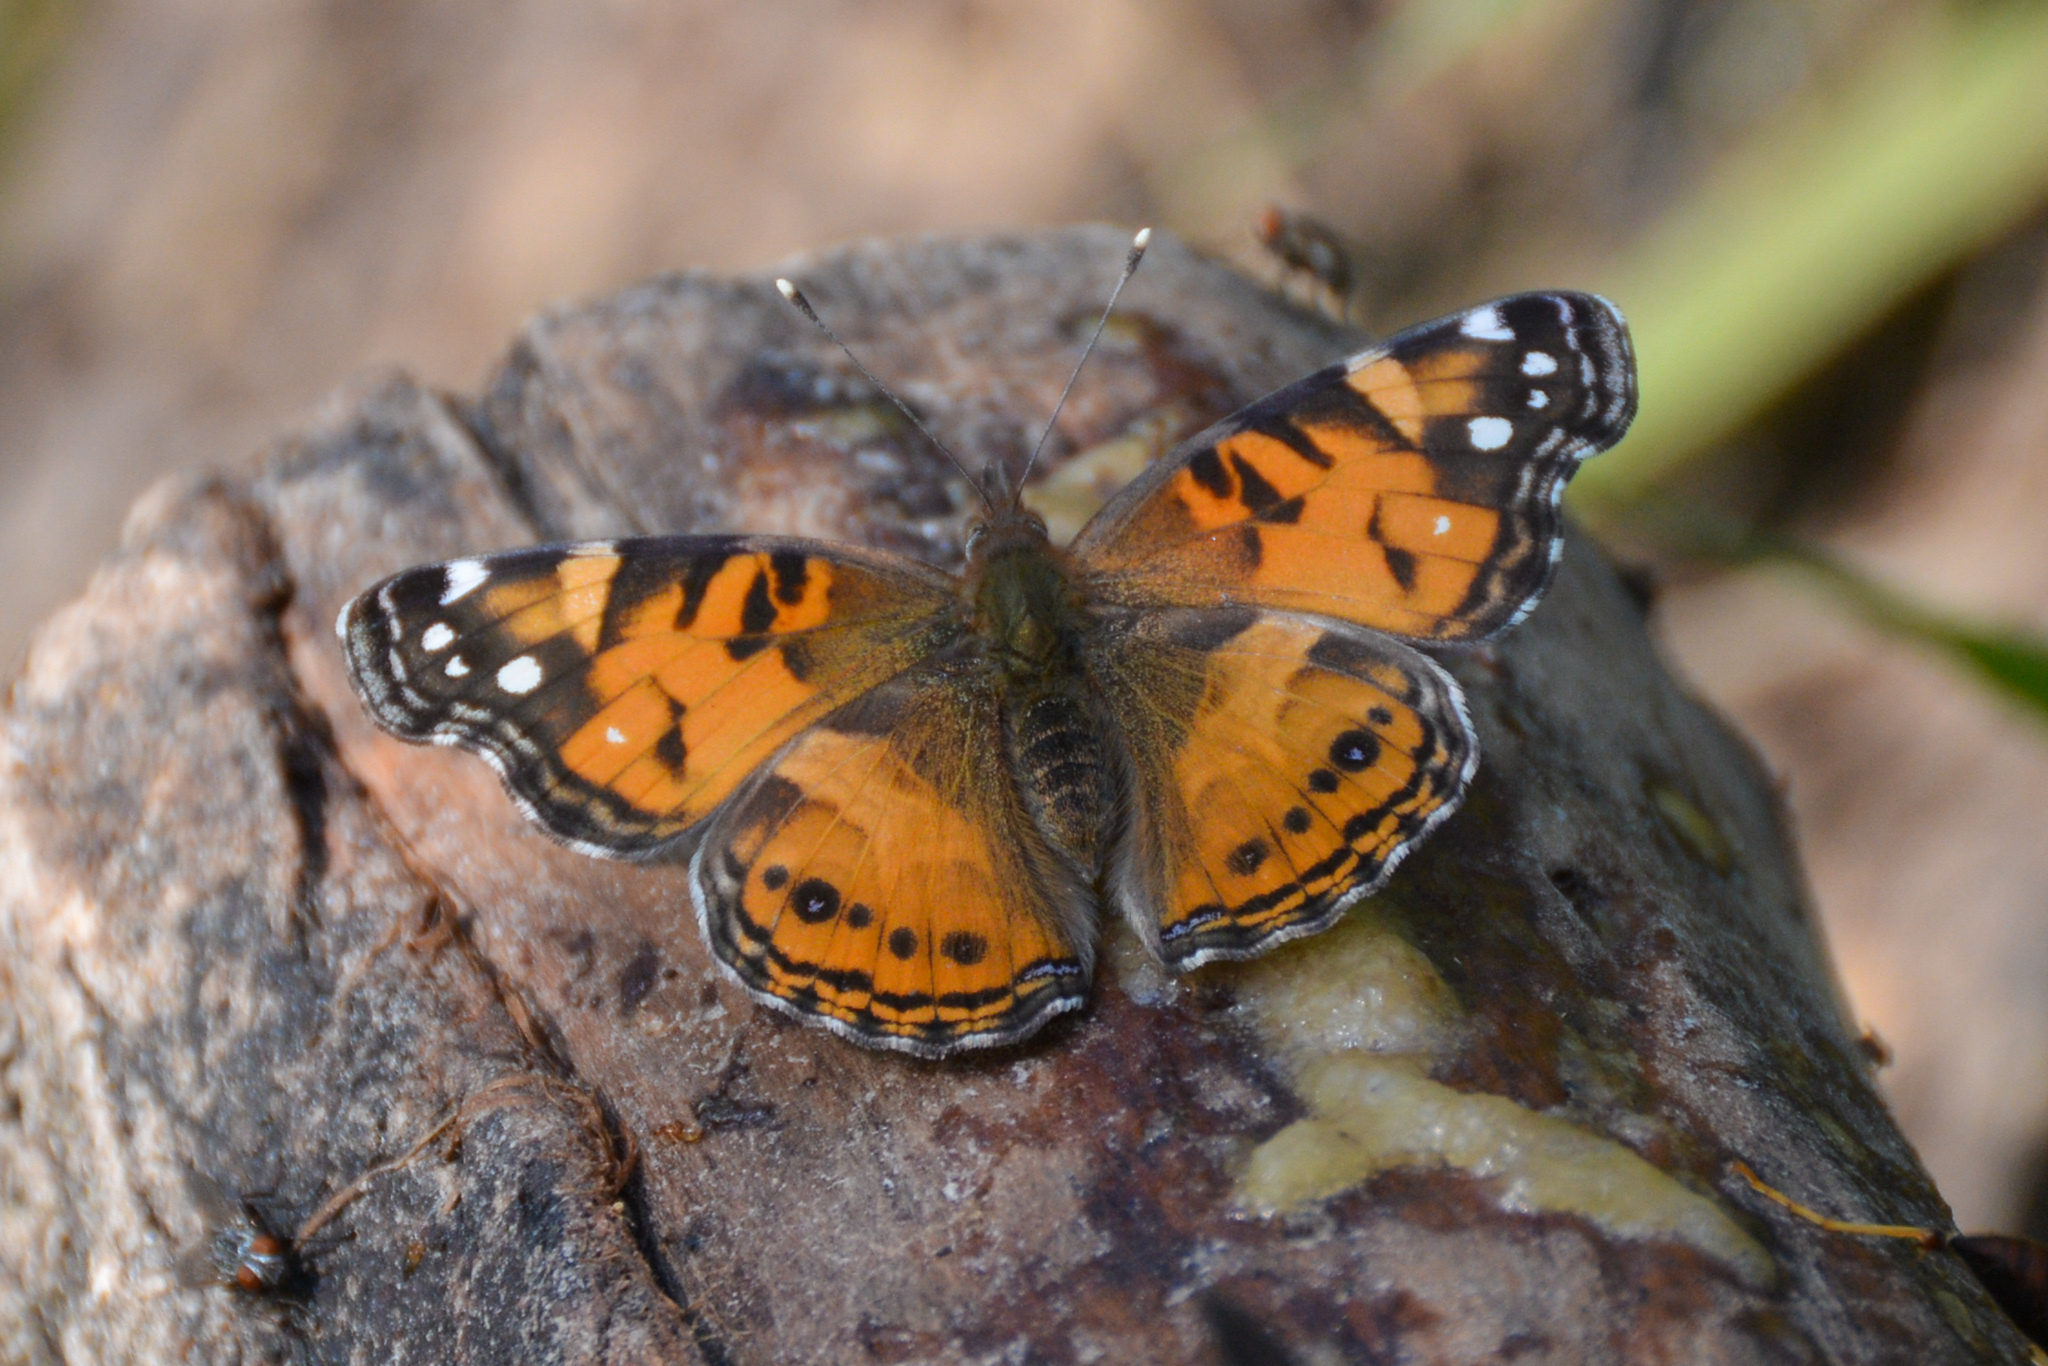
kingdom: Animalia
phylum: Arthropoda
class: Insecta
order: Lepidoptera
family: Nymphalidae
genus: Vanessa
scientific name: Vanessa virginiensis
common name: American lady
